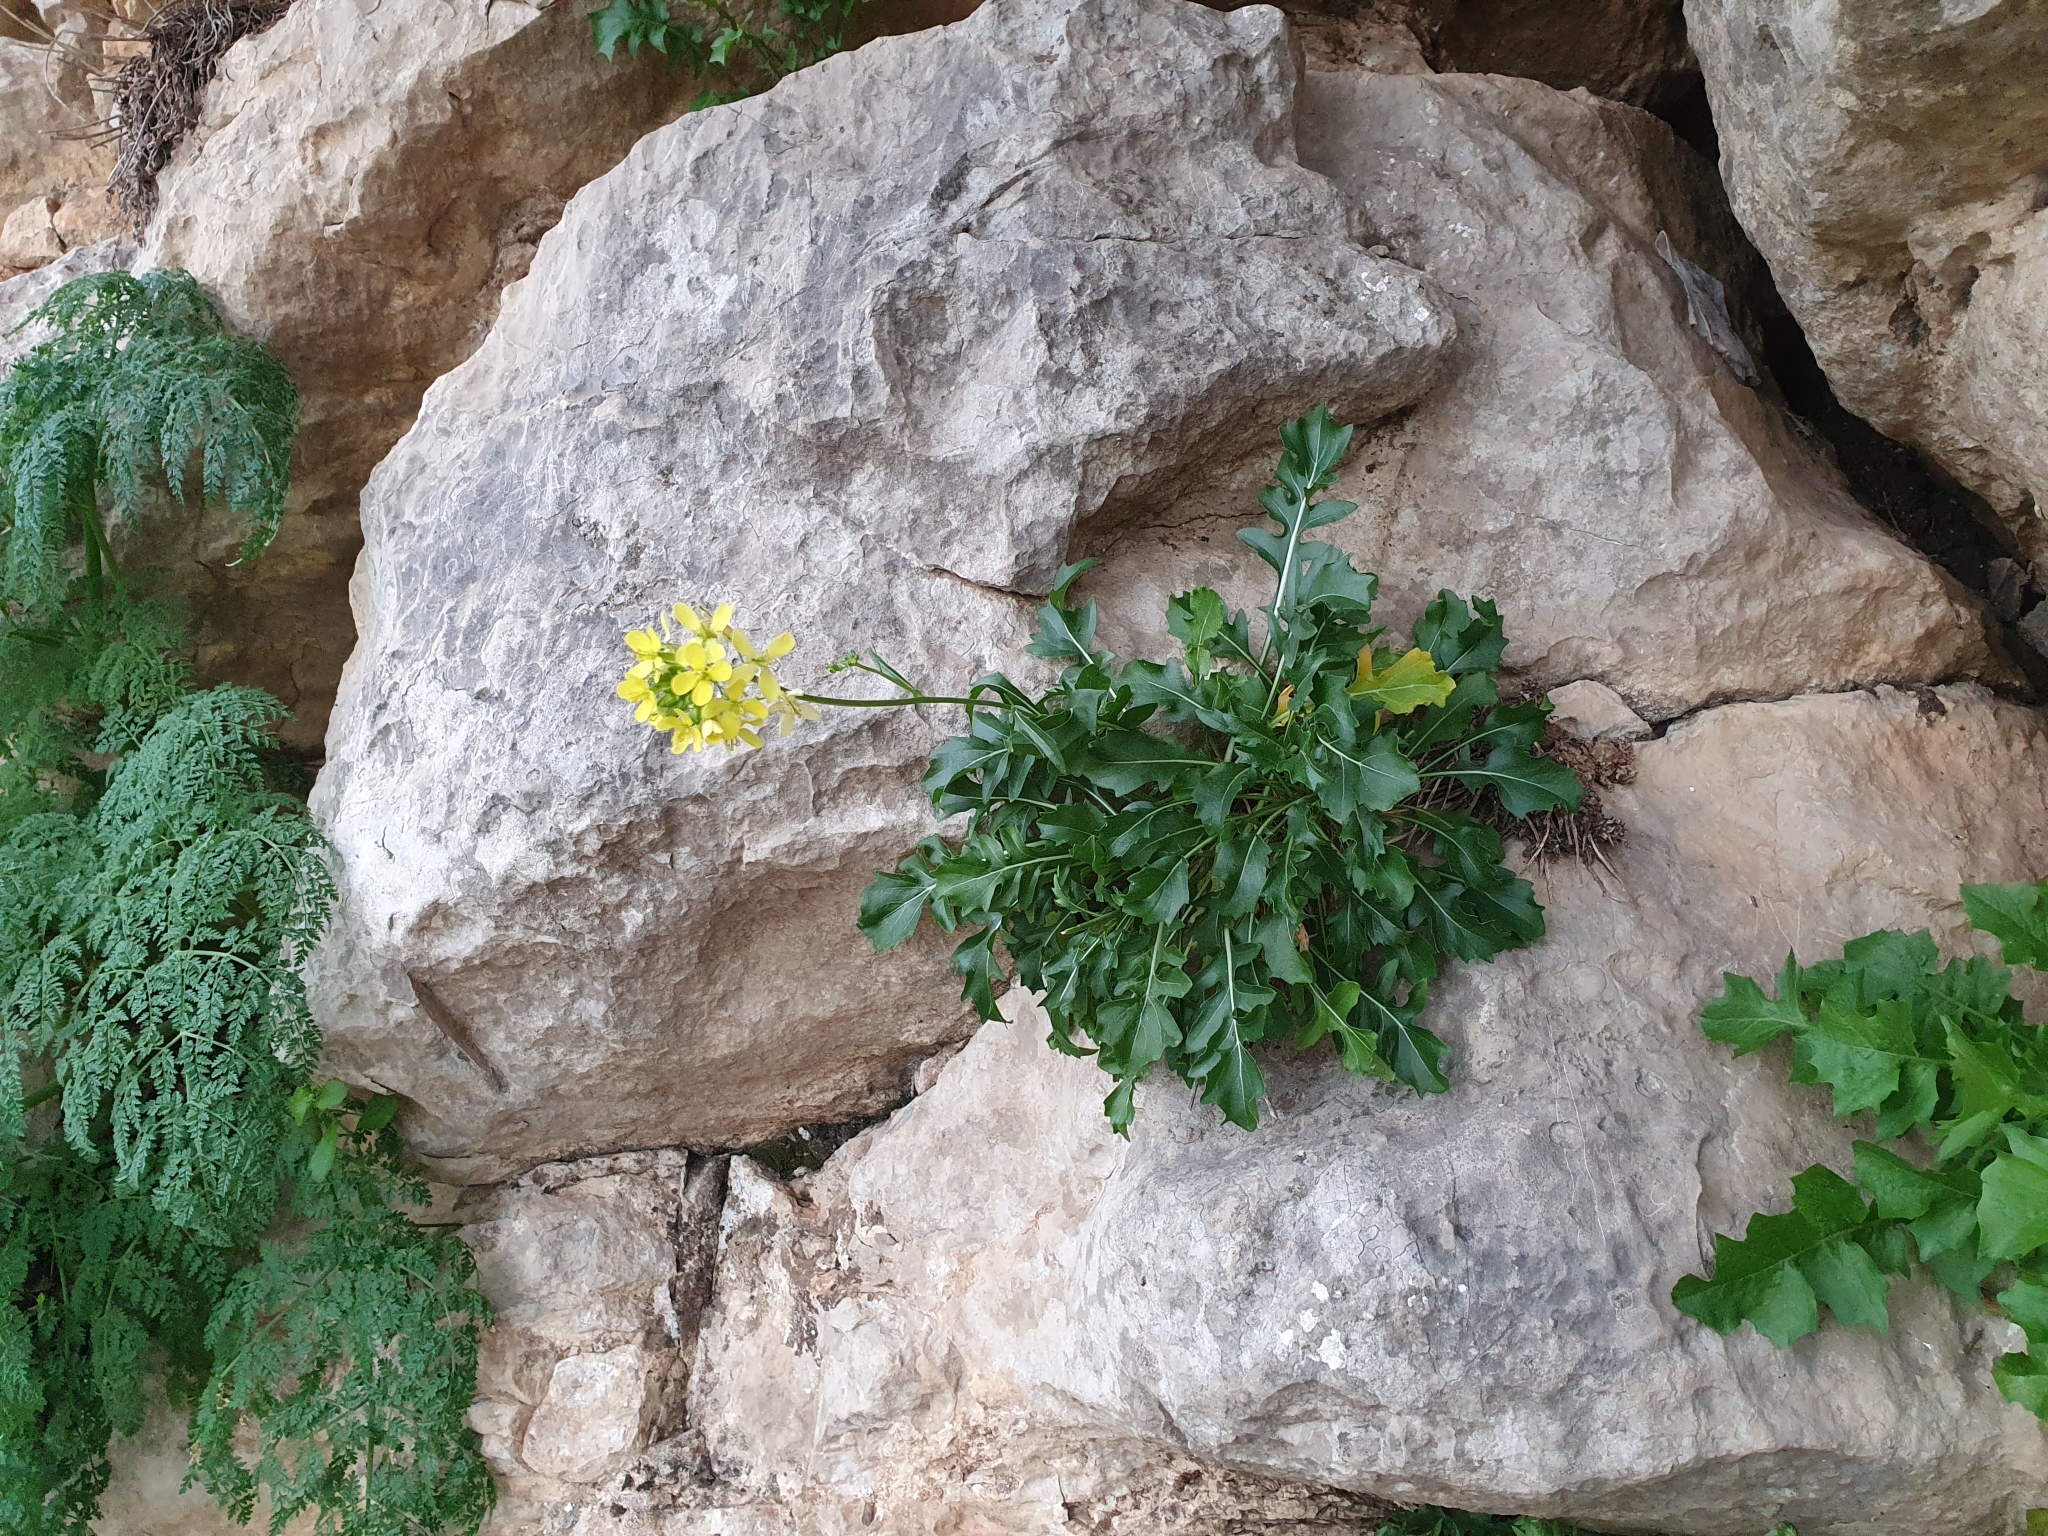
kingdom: Plantae
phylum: Tracheophyta
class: Magnoliopsida
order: Brassicales
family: Brassicaceae
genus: Brassica
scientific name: Brassica gravinae
